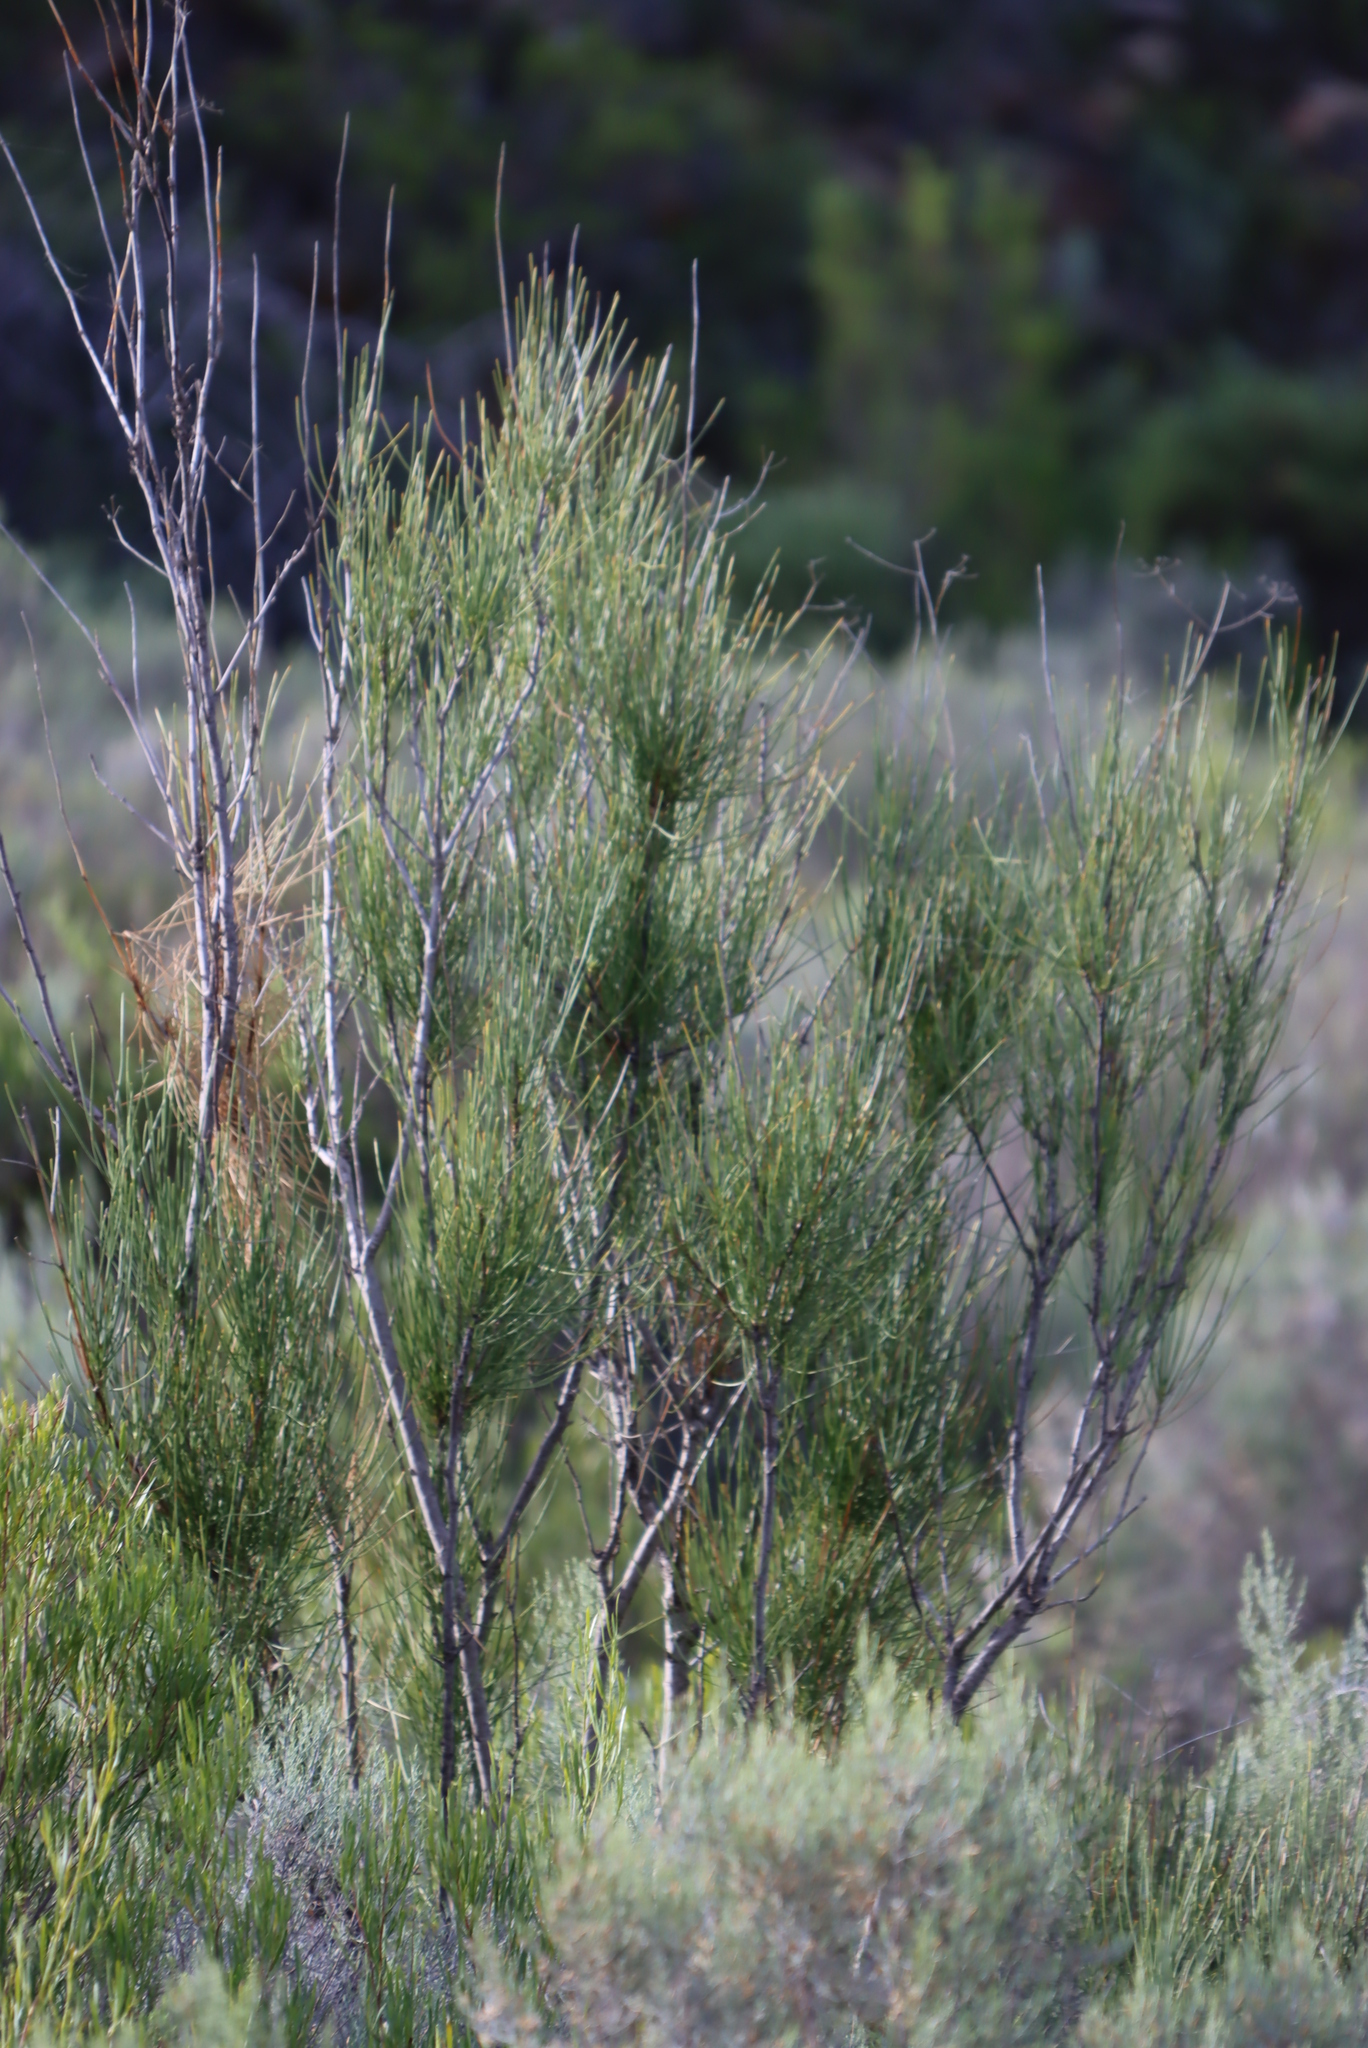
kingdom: Plantae
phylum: Tracheophyta
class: Magnoliopsida
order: Apiales
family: Apiaceae
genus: Anginon
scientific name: Anginon difforme
